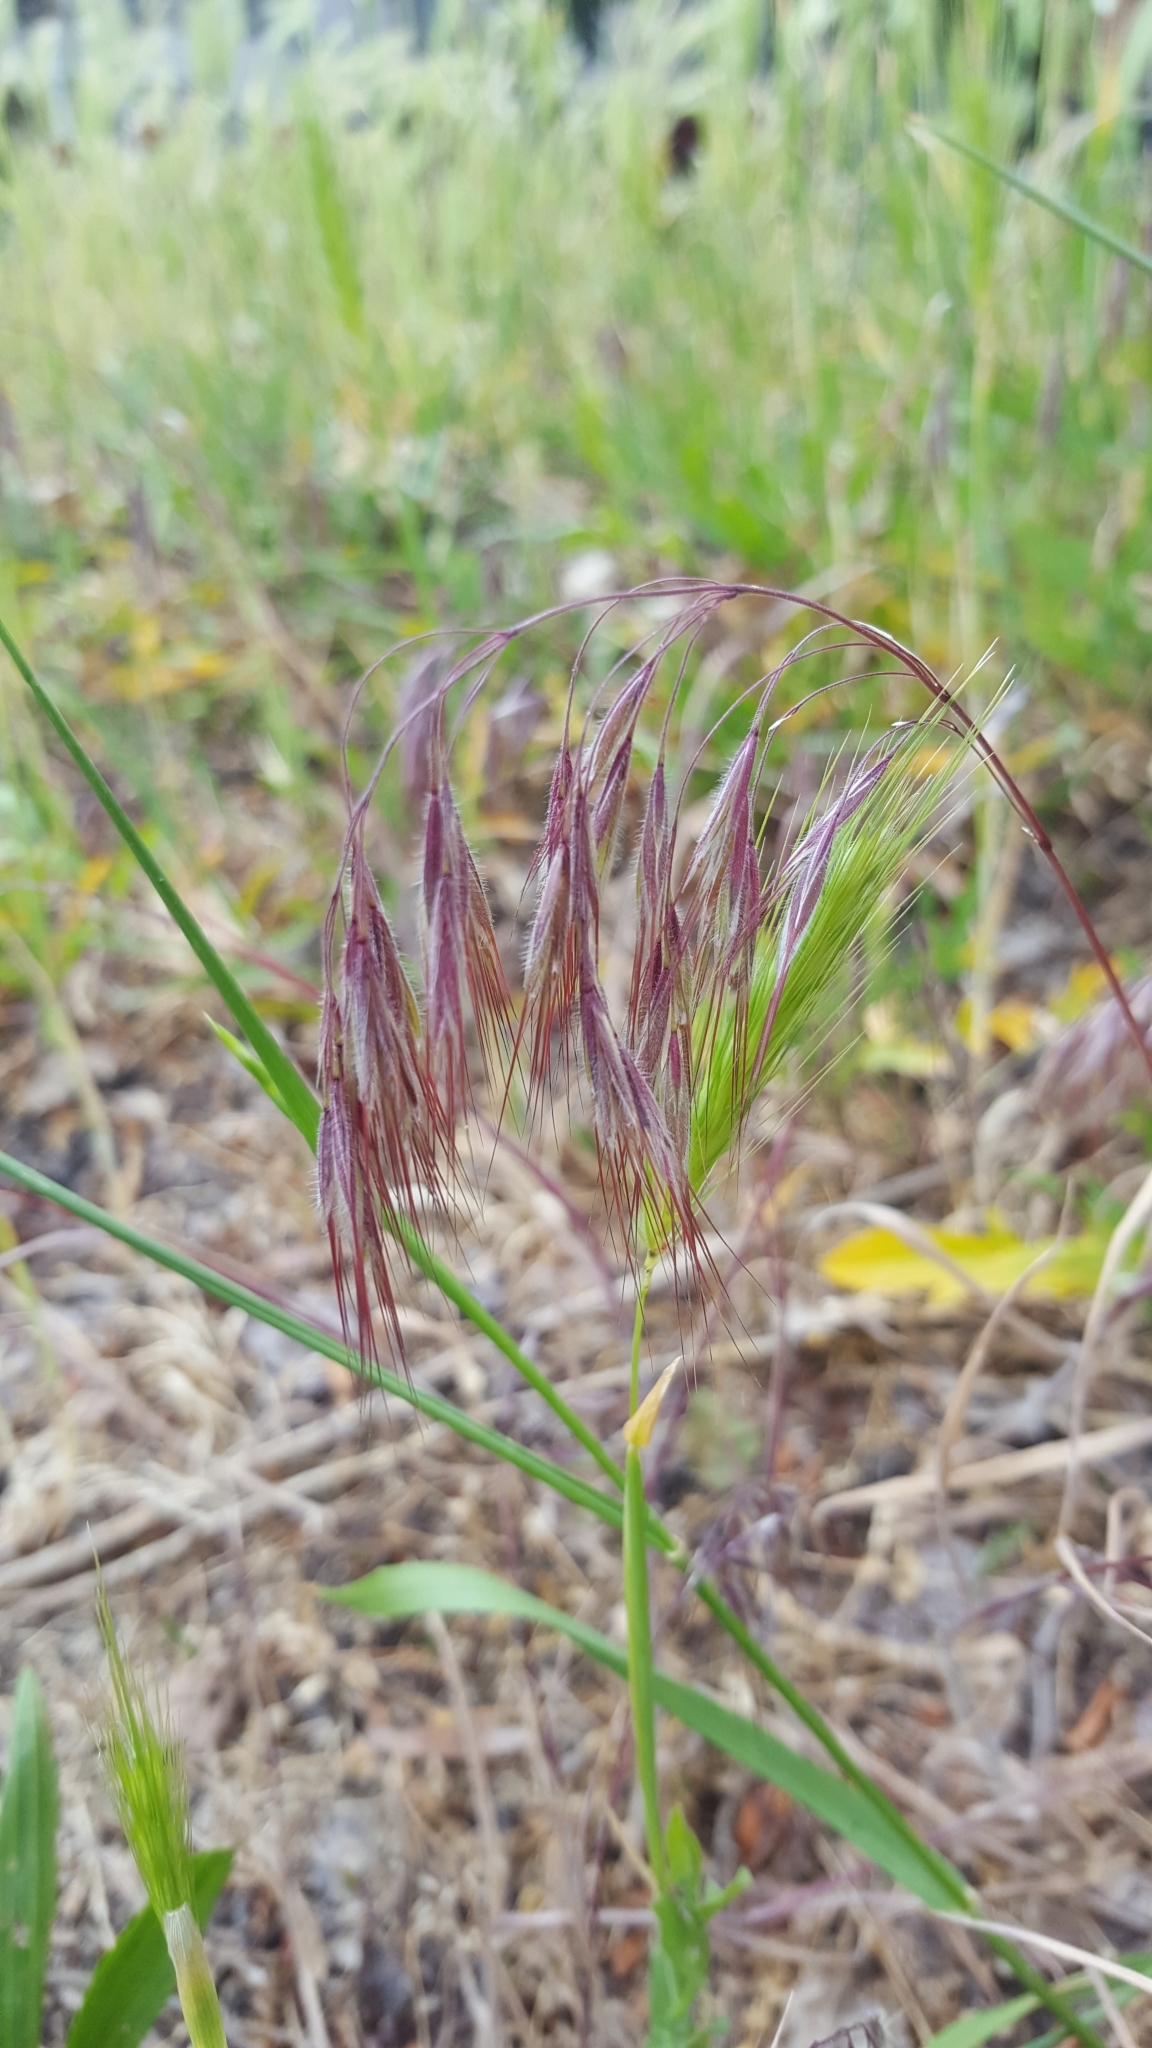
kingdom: Plantae
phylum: Tracheophyta
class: Liliopsida
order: Poales
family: Poaceae
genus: Bromus
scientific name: Bromus tectorum
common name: Cheatgrass
